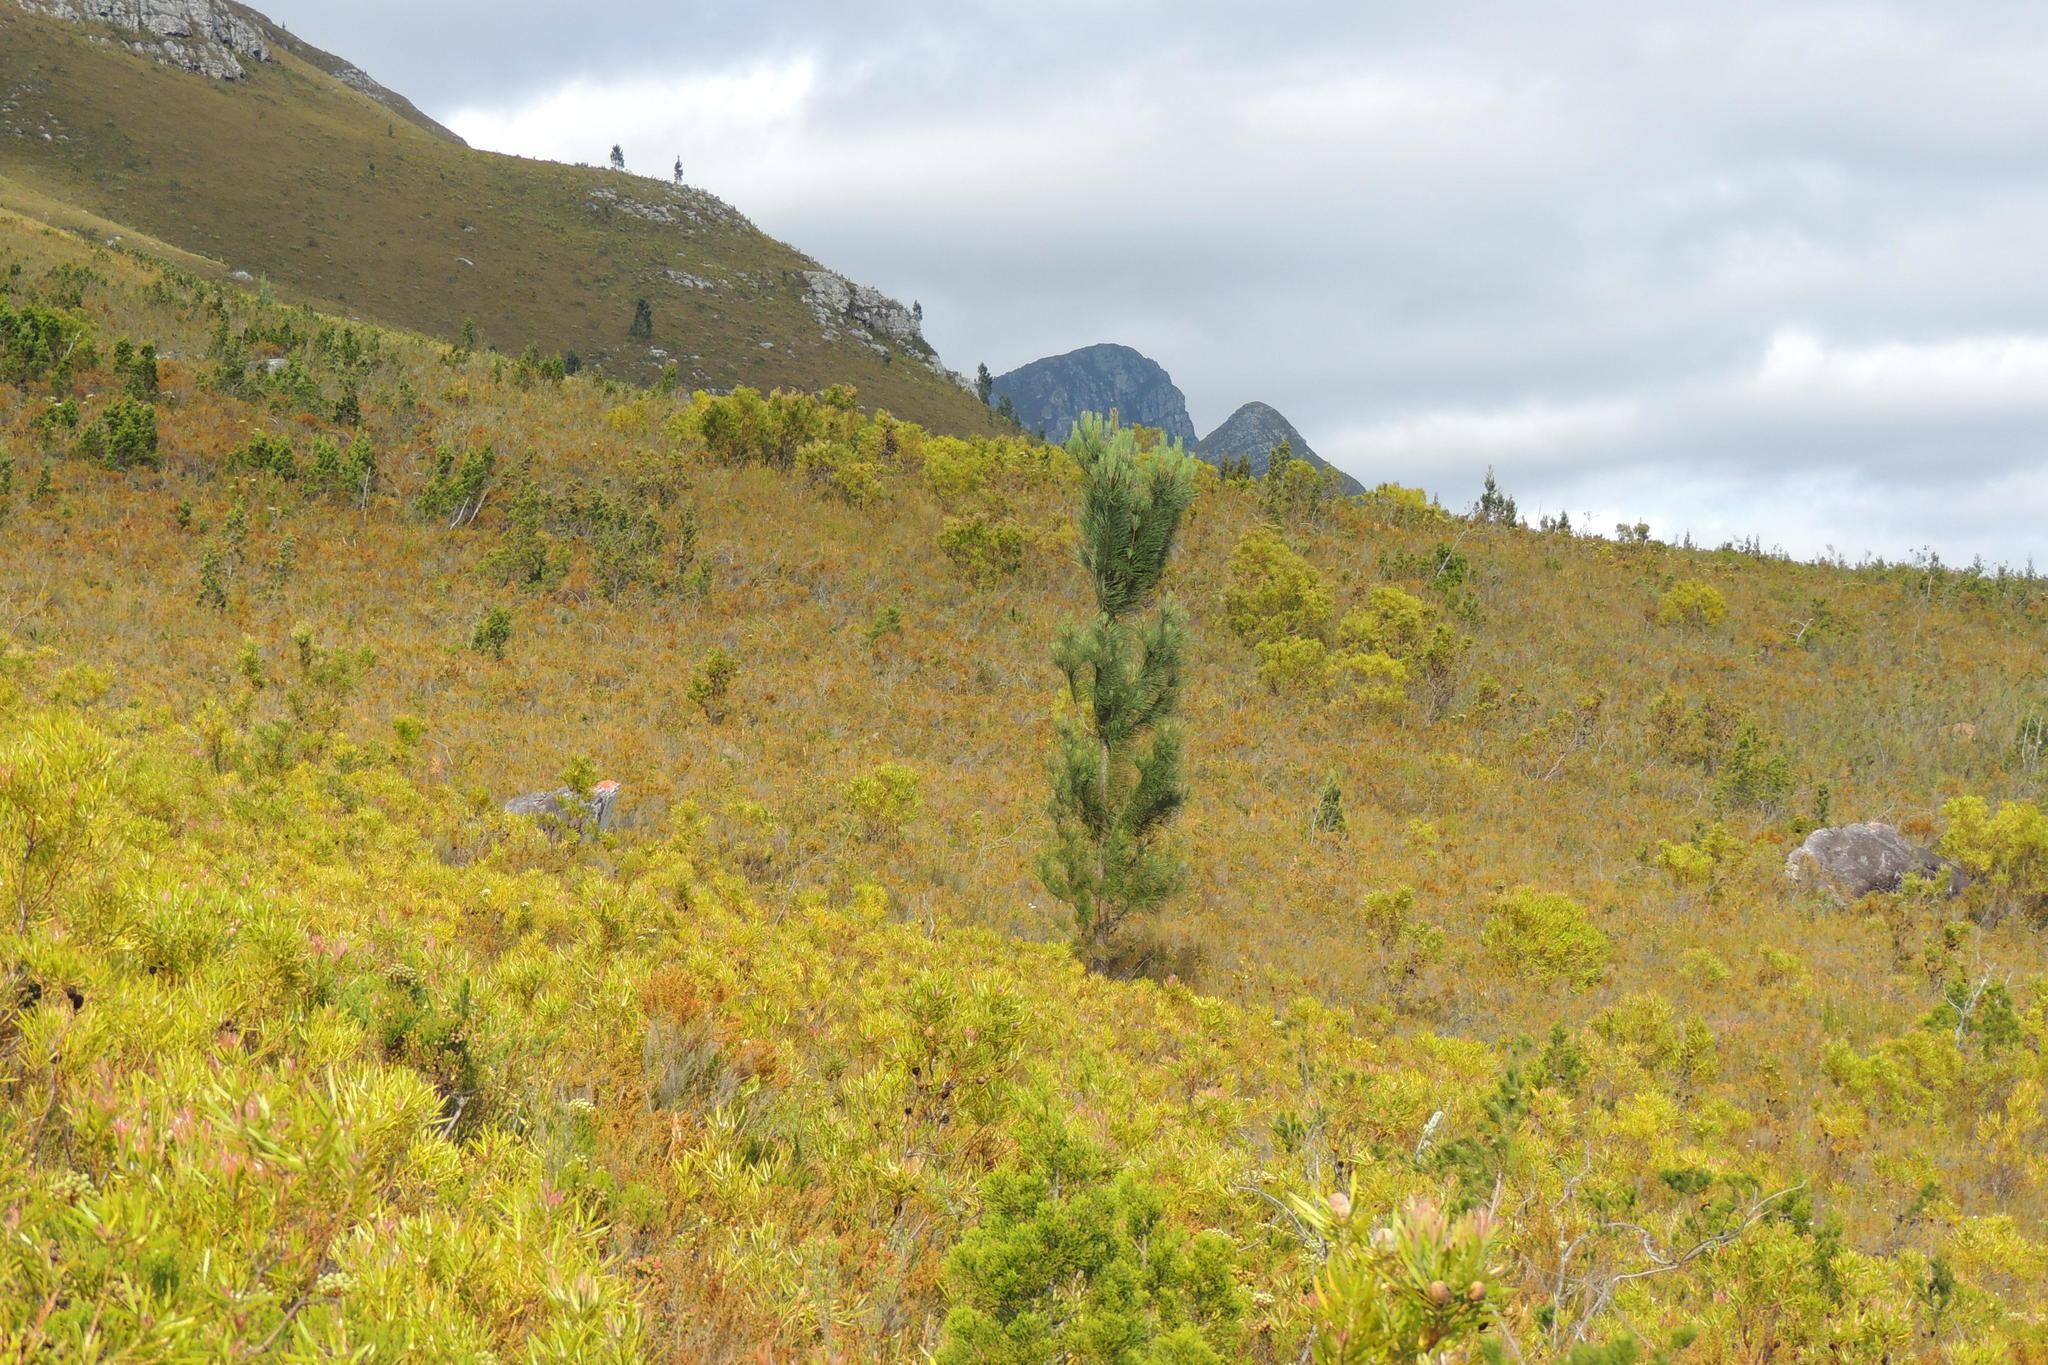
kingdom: Plantae
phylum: Tracheophyta
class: Pinopsida
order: Pinales
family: Pinaceae
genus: Pinus
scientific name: Pinus pinaster
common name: Maritime pine
